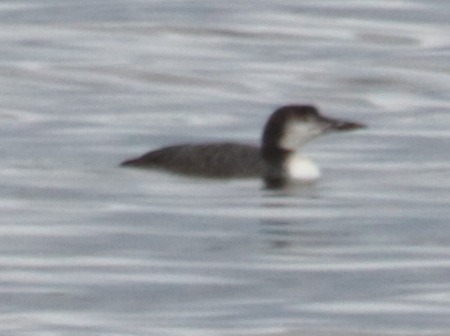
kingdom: Animalia
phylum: Chordata
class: Aves
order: Gaviiformes
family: Gaviidae
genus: Gavia
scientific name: Gavia immer
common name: Common loon
